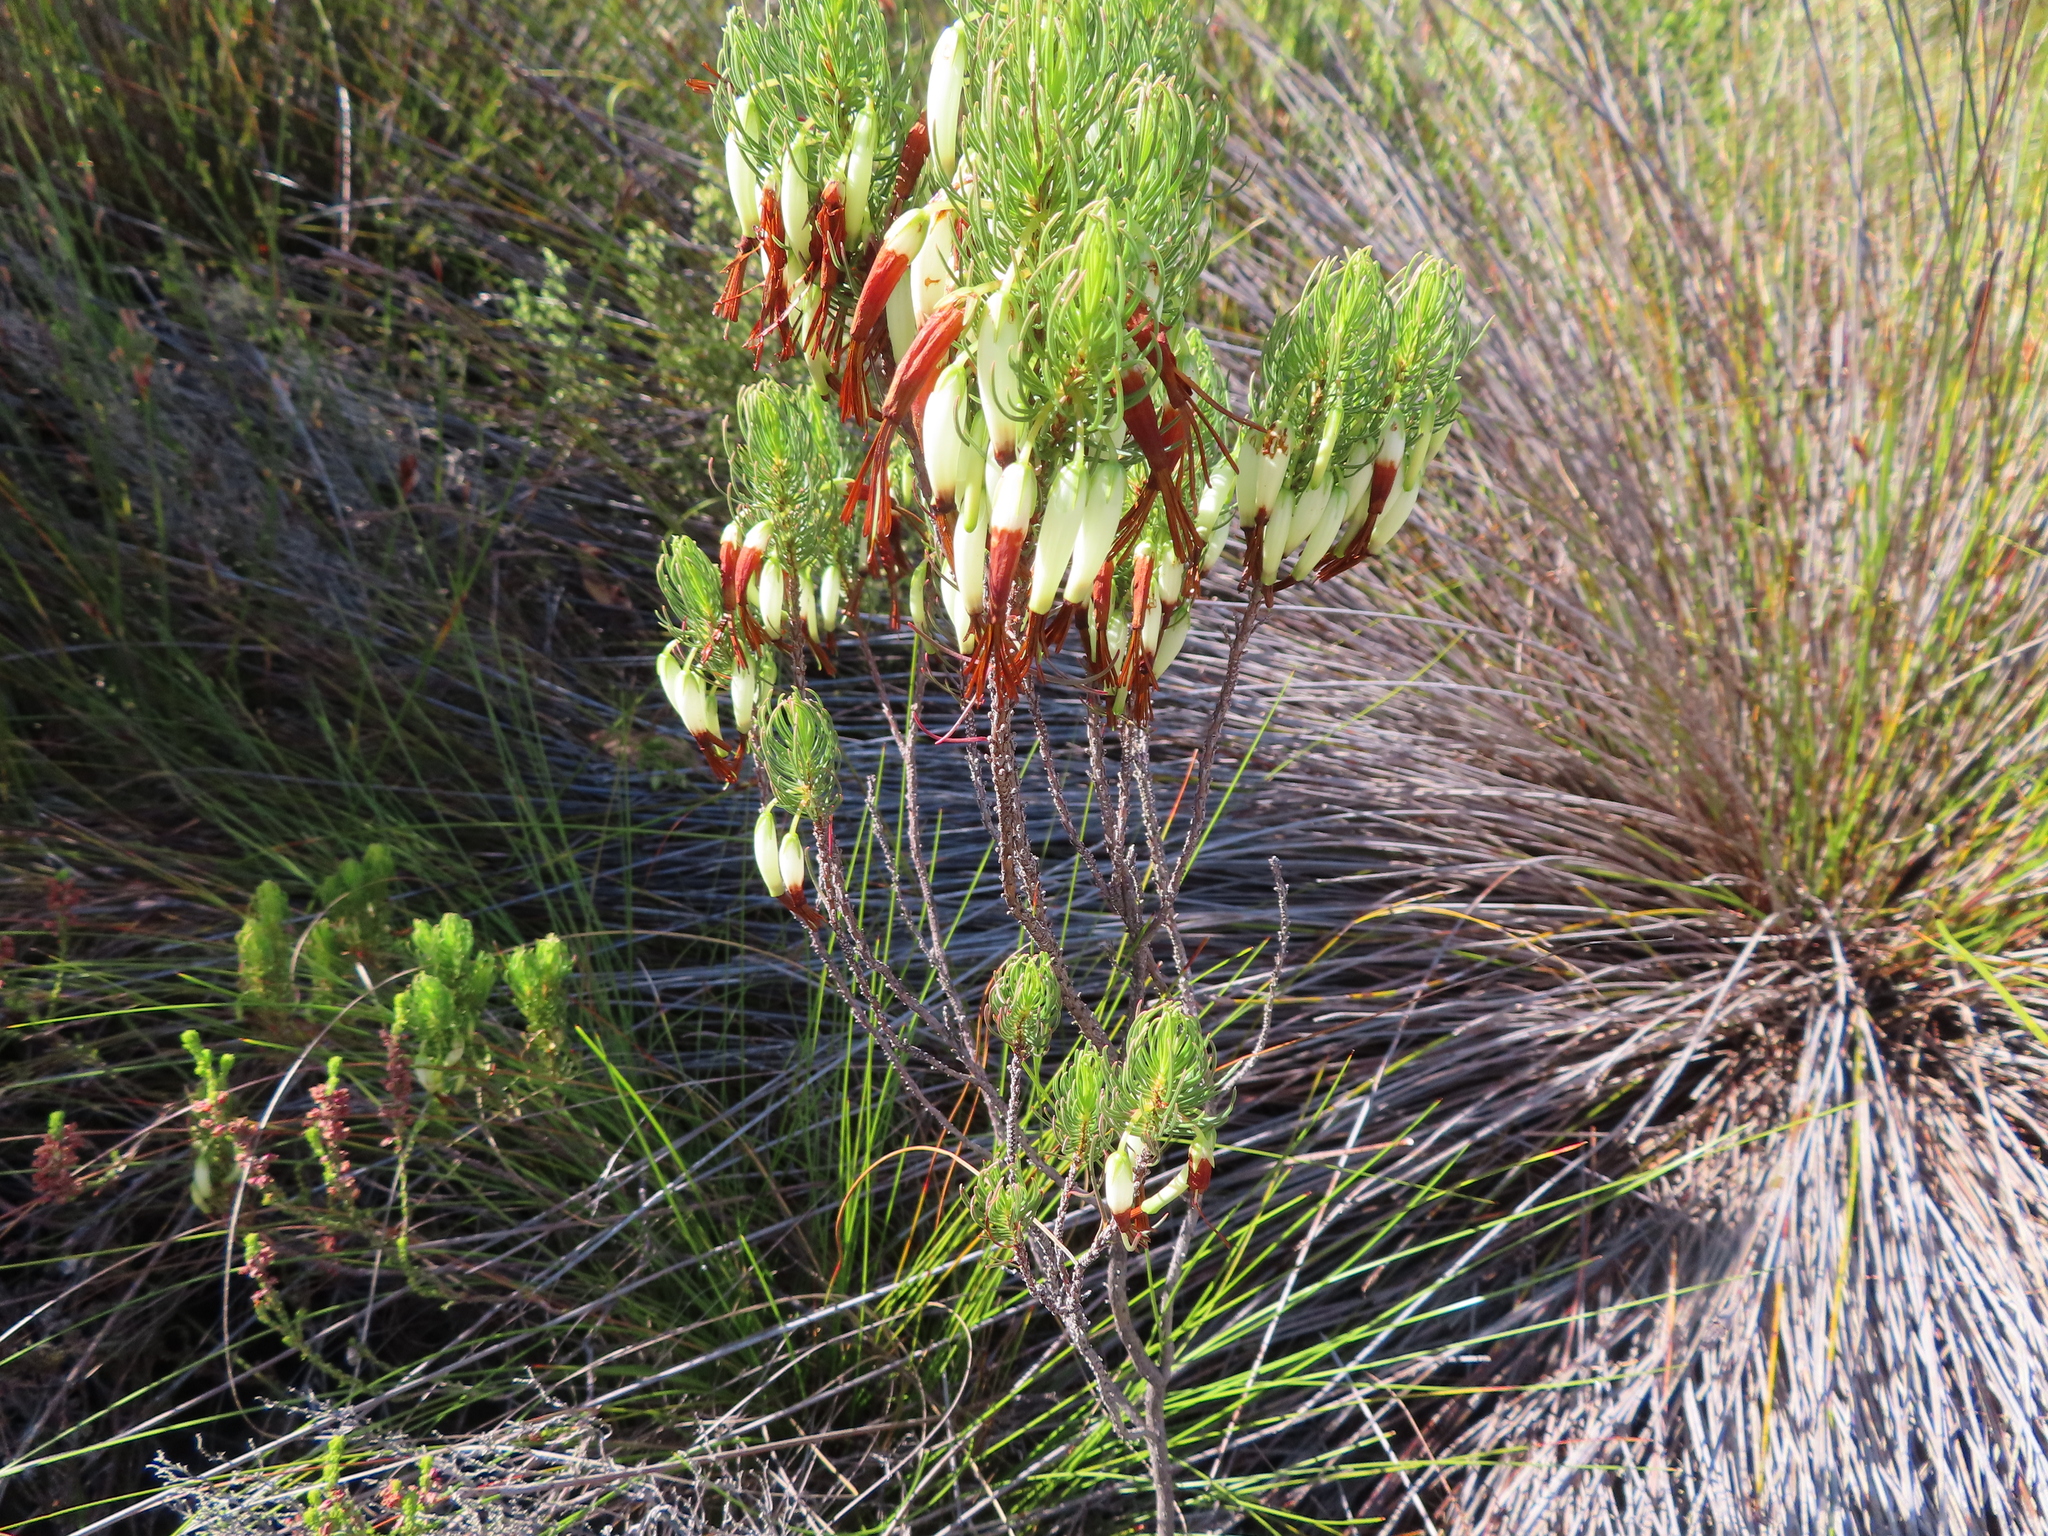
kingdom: Plantae
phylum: Tracheophyta
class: Magnoliopsida
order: Ericales
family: Ericaceae
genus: Erica
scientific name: Erica plukenetii
